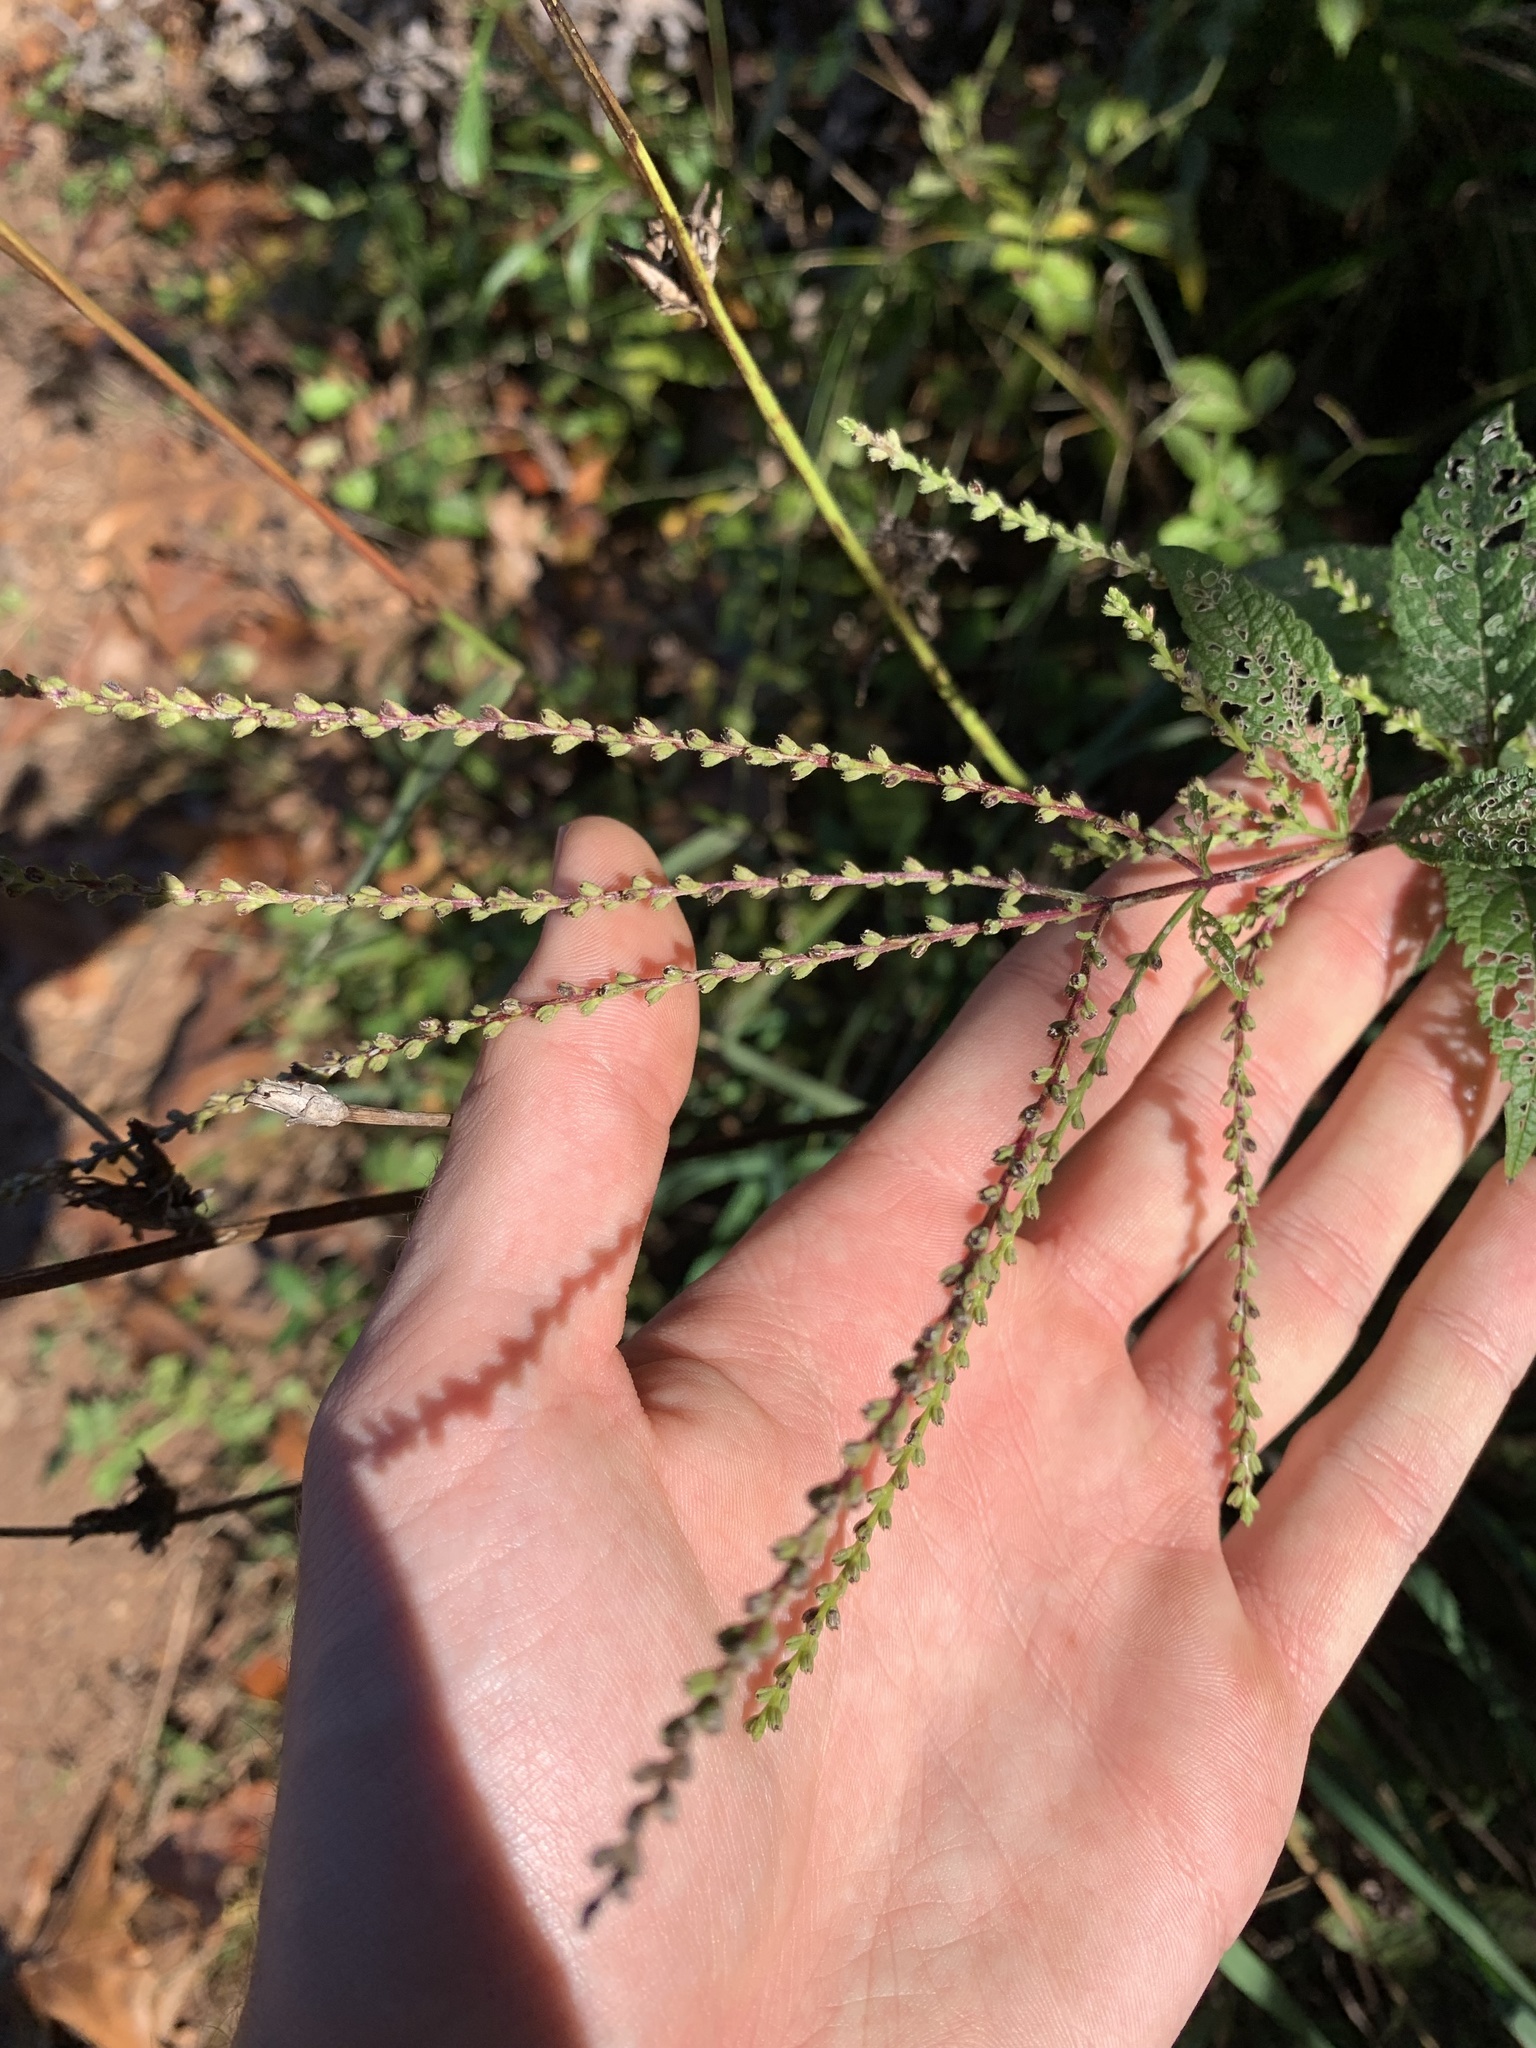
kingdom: Plantae
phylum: Tracheophyta
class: Magnoliopsida
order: Lamiales
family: Verbenaceae
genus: Verbena
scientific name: Verbena urticifolia
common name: Nettle-leaved vervain
